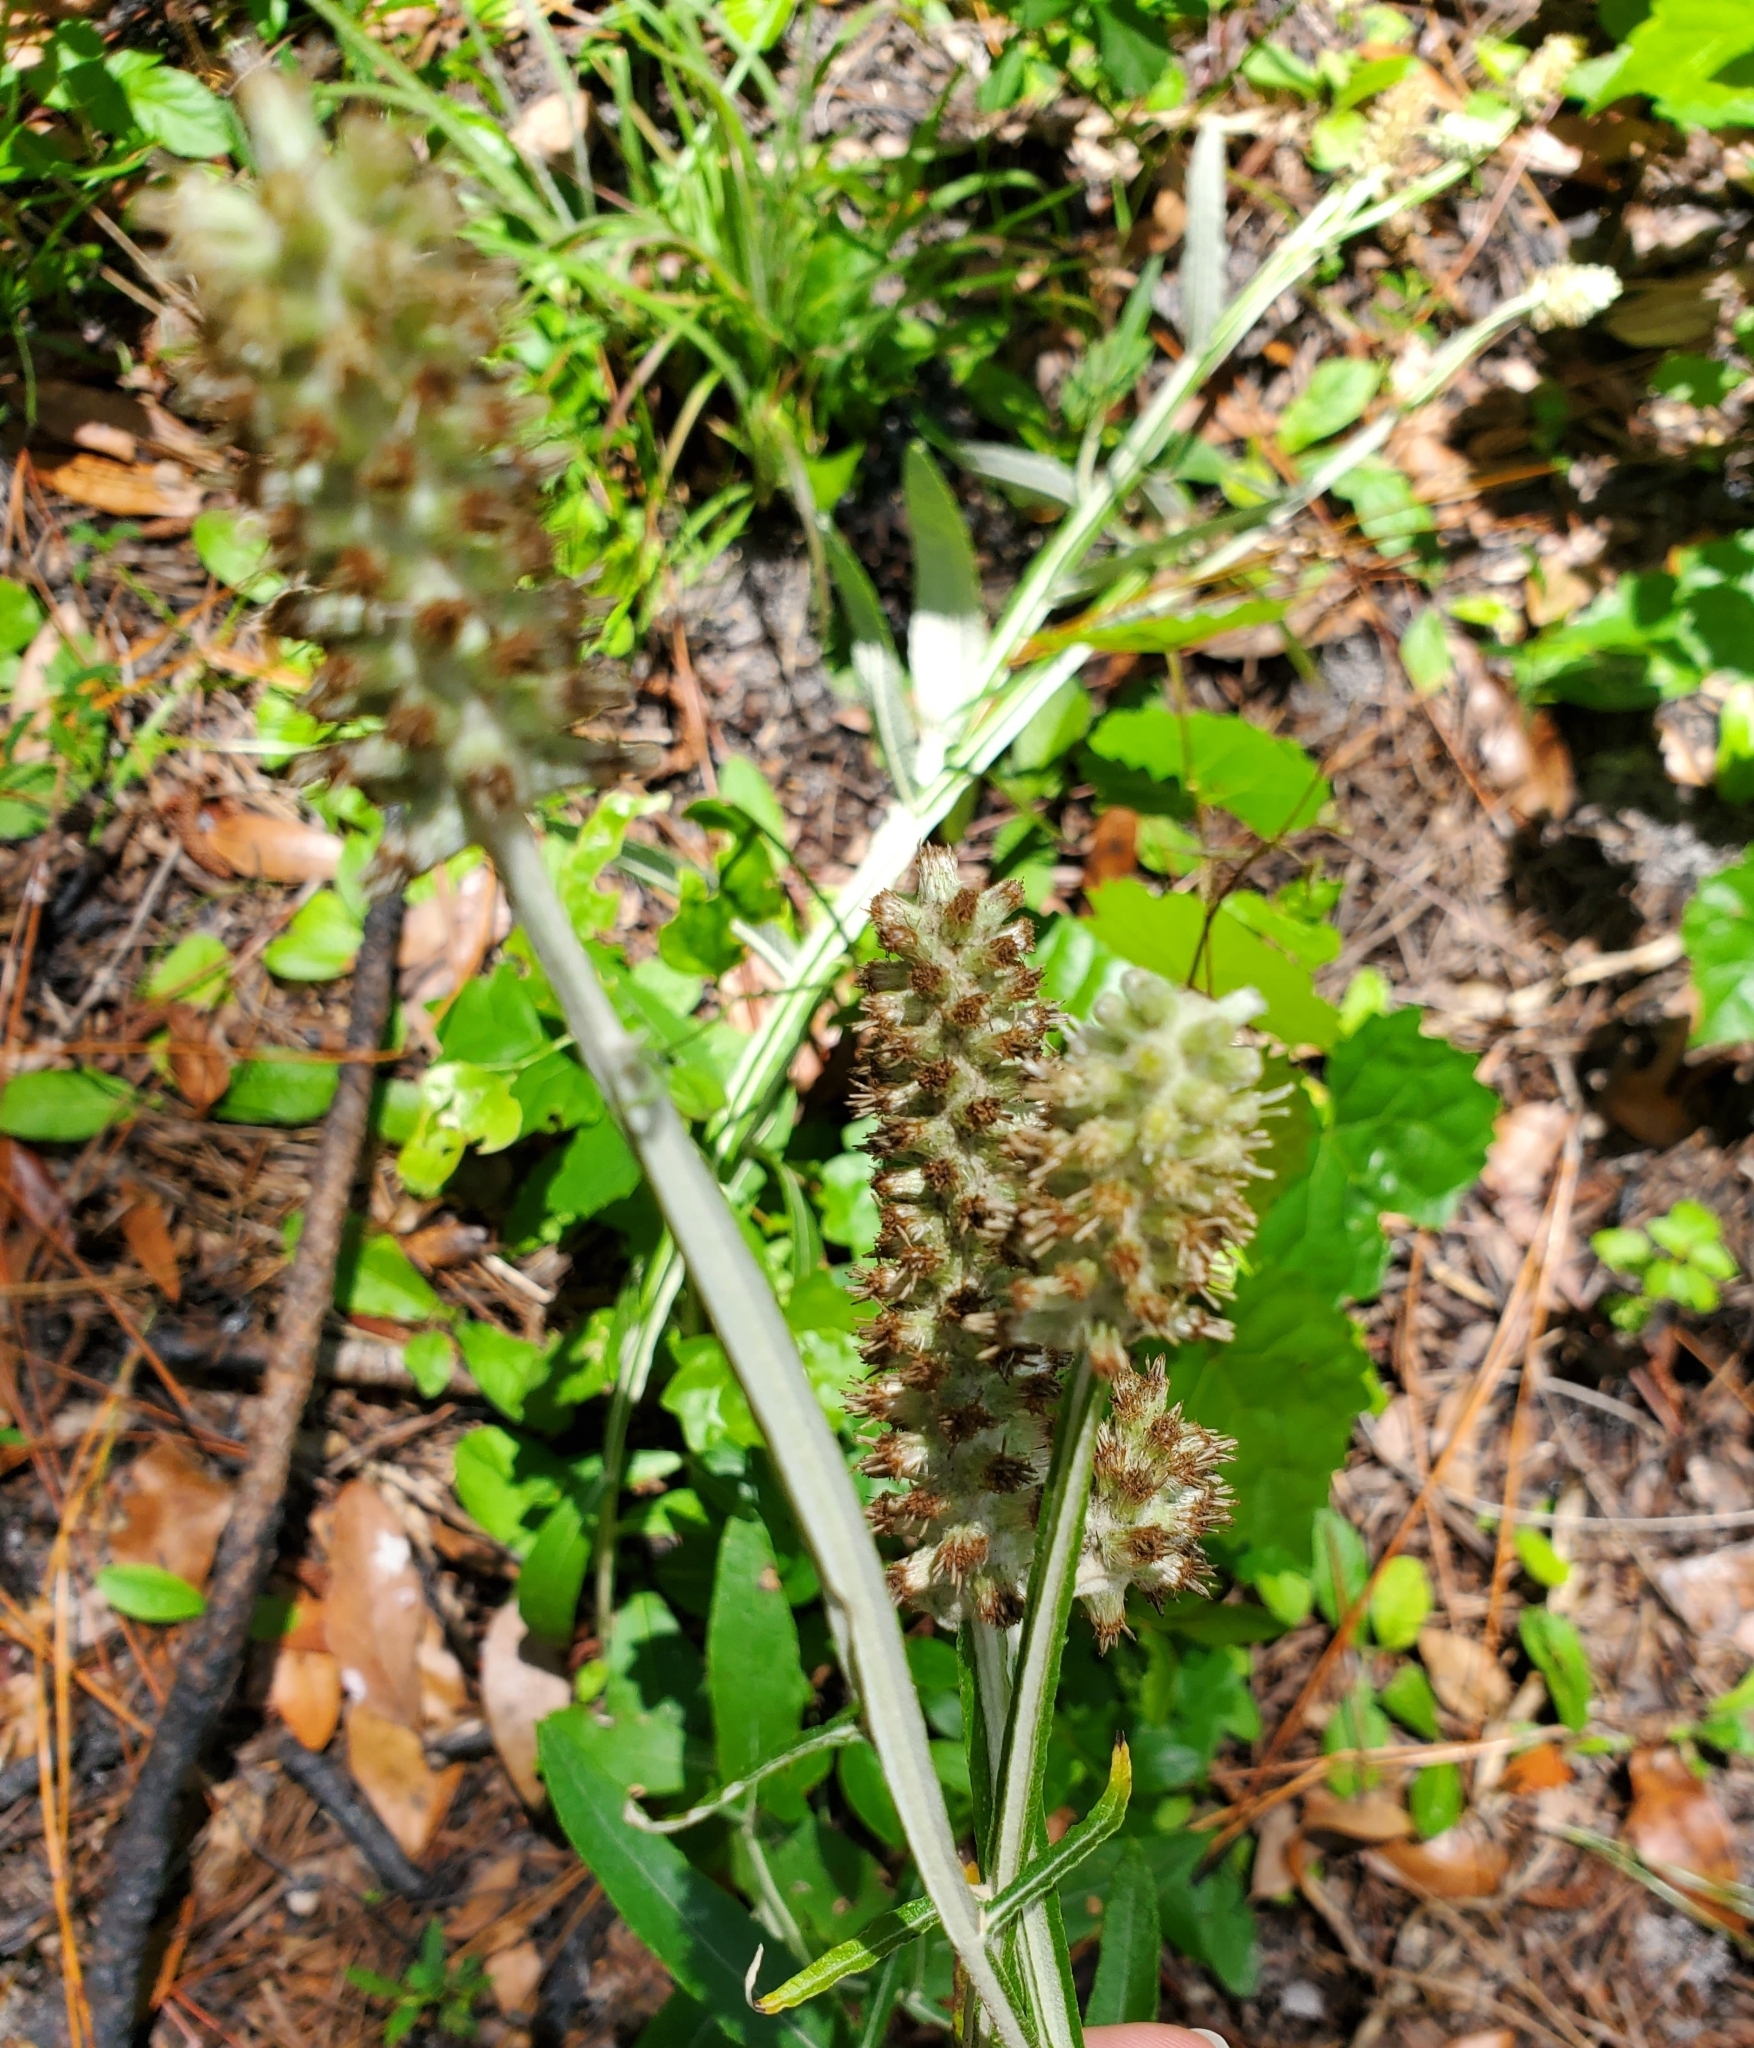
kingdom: Plantae
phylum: Tracheophyta
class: Magnoliopsida
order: Asterales
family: Asteraceae
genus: Pterocaulon
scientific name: Pterocaulon pycnostachyum
